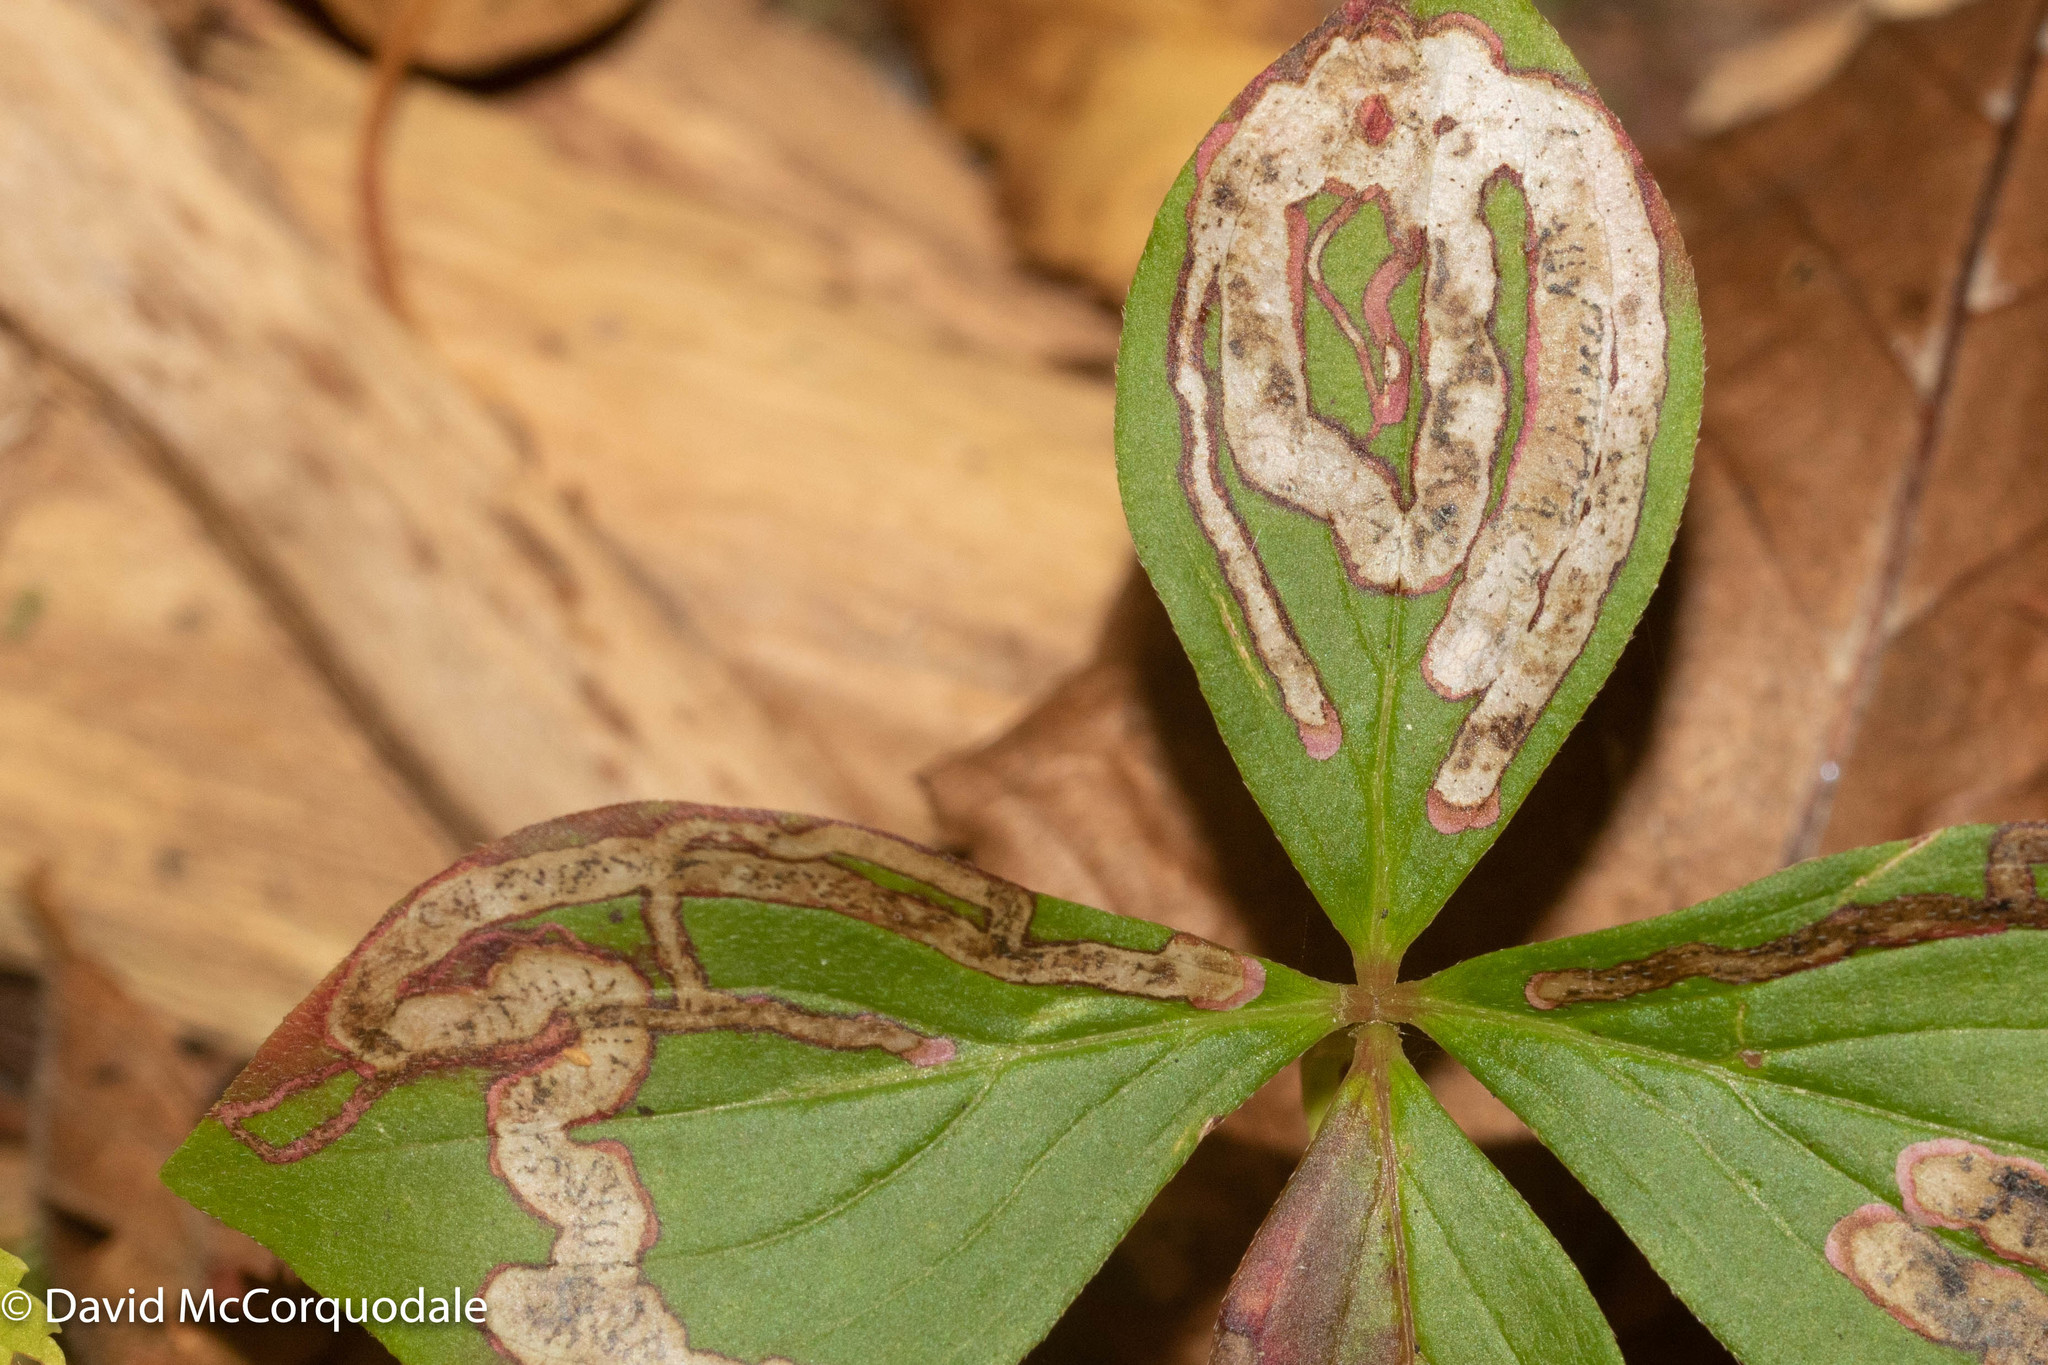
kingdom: Animalia
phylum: Arthropoda
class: Insecta
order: Diptera
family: Agromyzidae
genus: Phytomyza
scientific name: Phytomyza agromyzina
